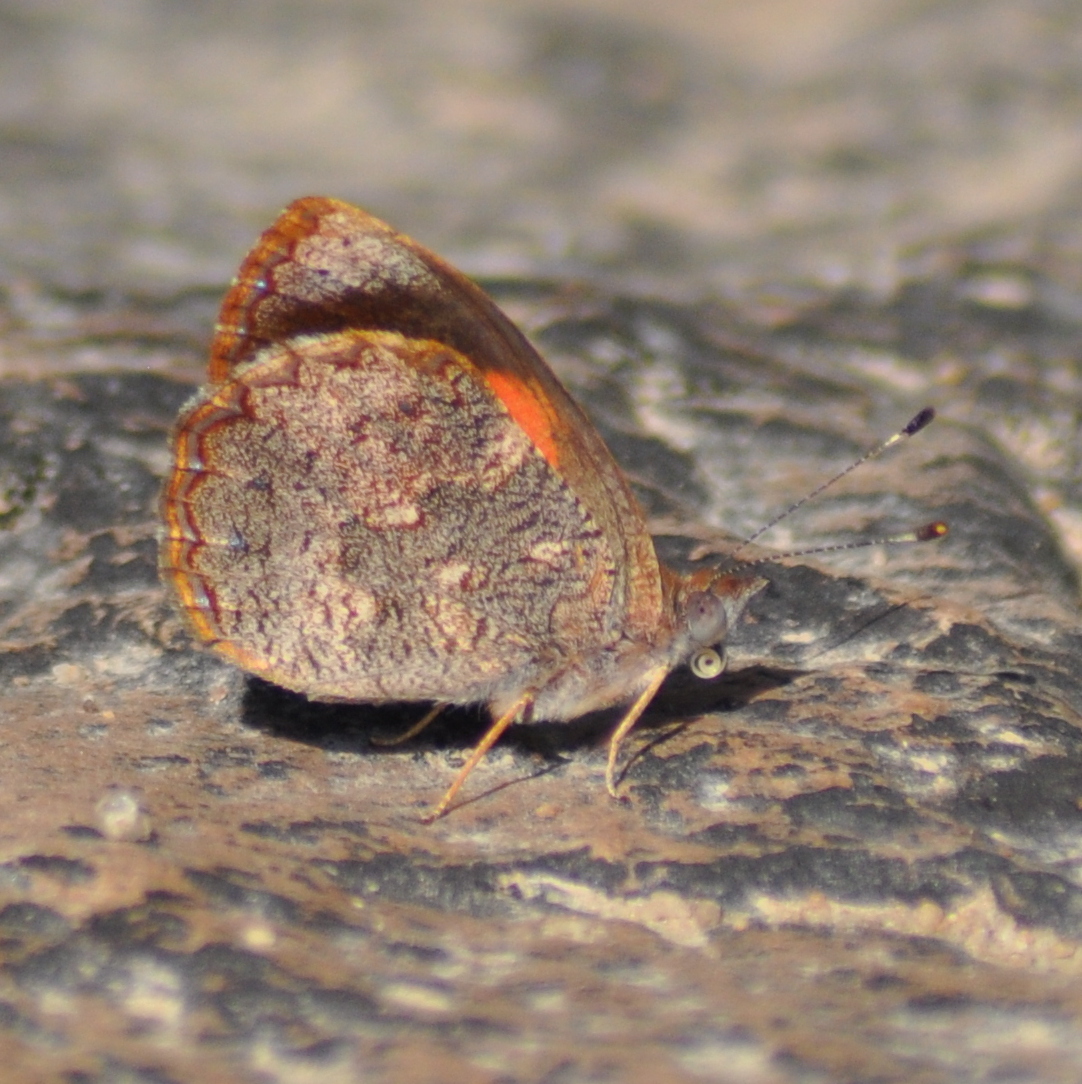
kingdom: Animalia
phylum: Arthropoda
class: Insecta
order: Lepidoptera
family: Nymphalidae
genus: Haematera
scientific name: Haematera pyrame
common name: Blind eighty-eight
